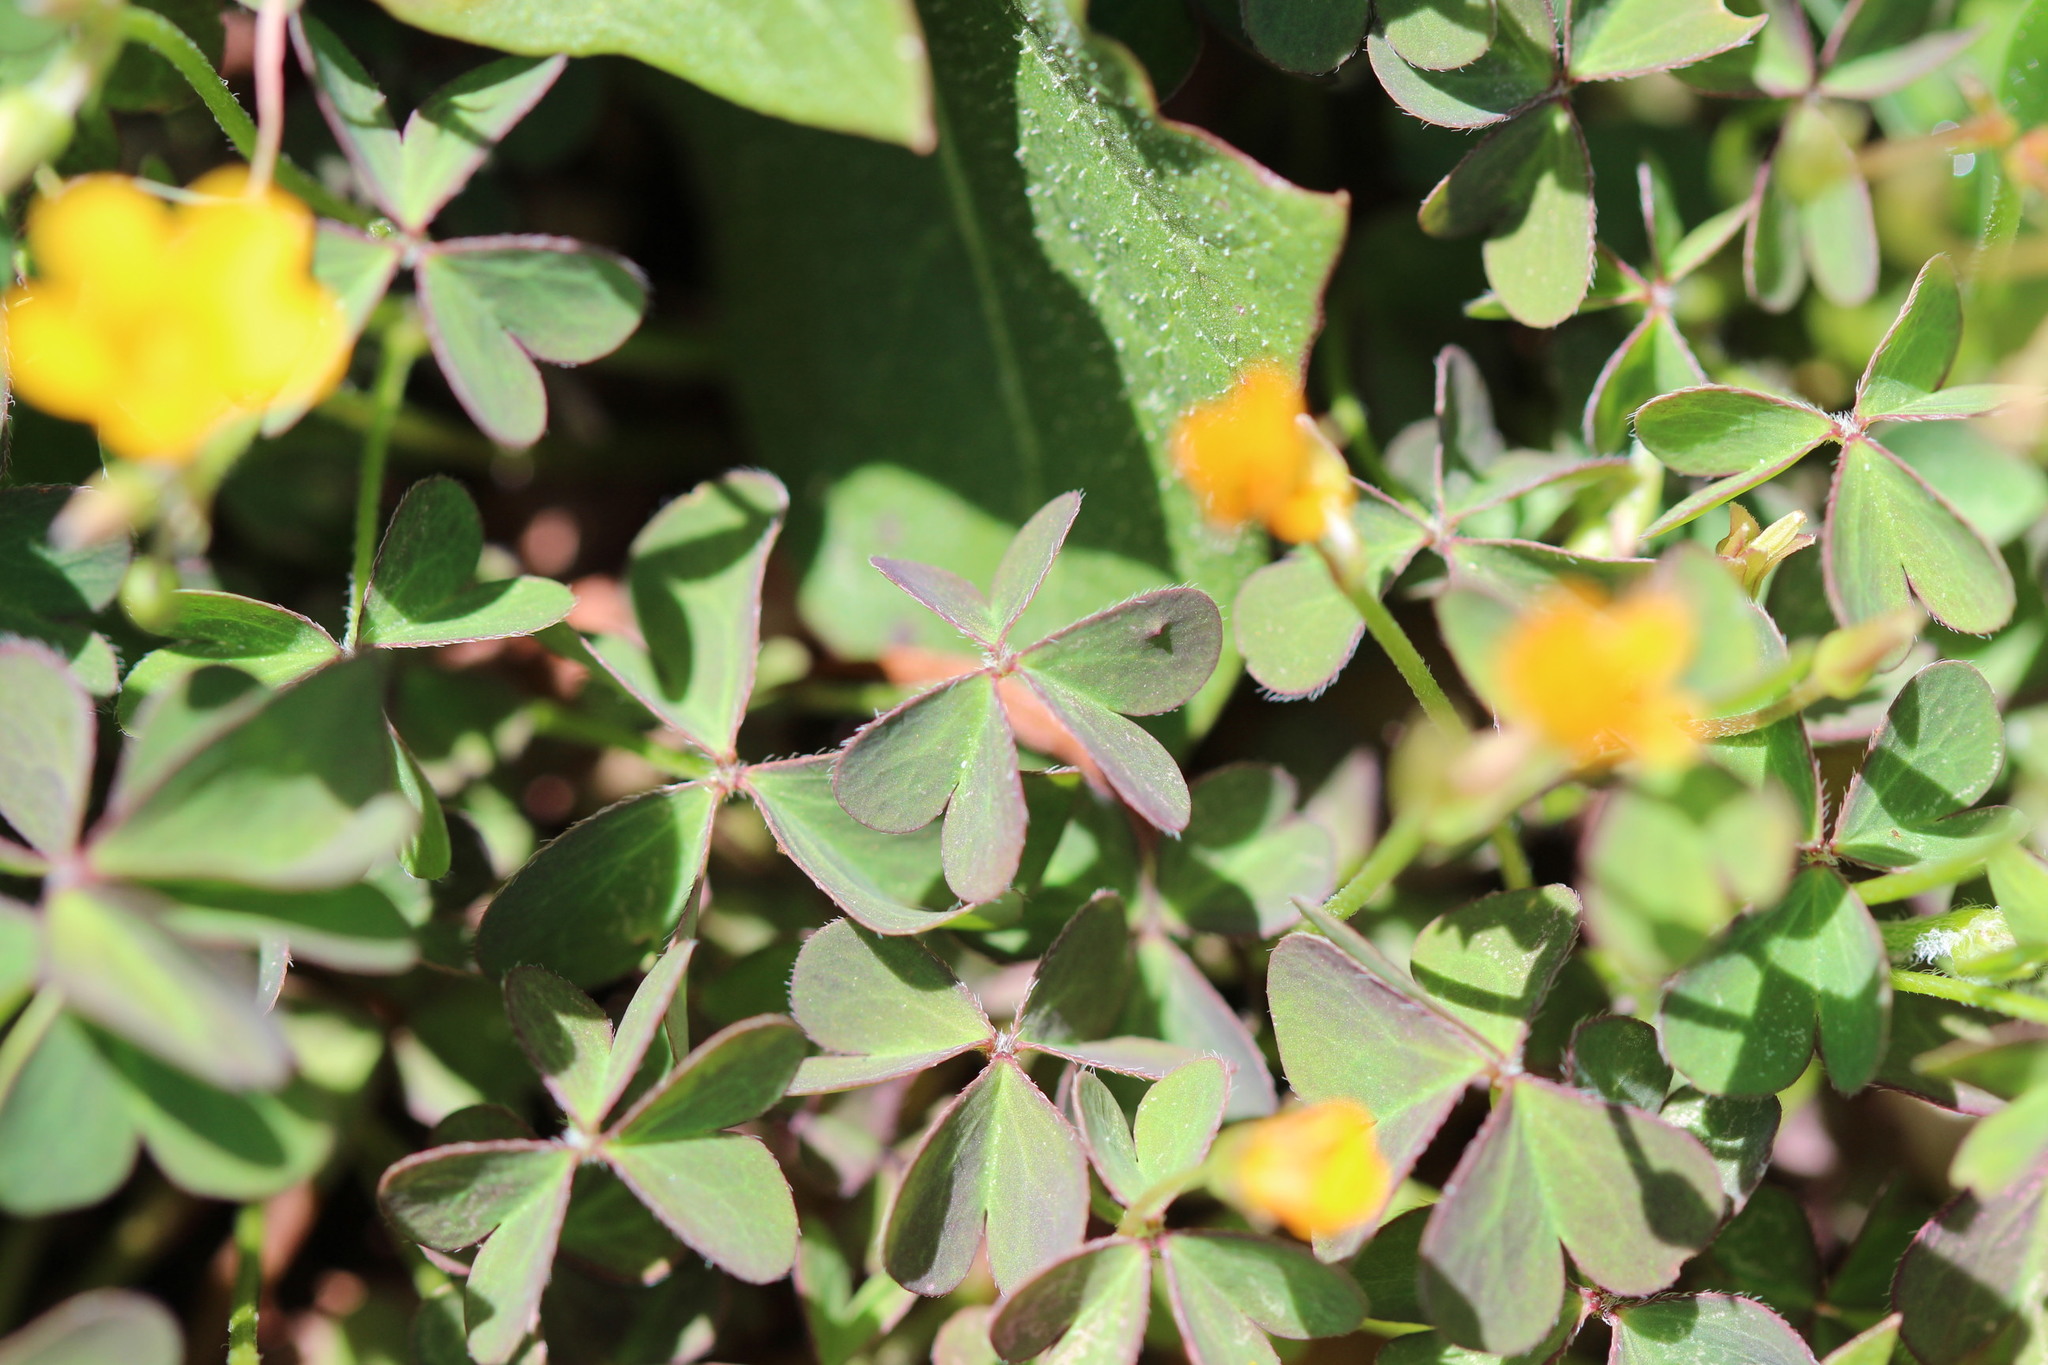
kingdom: Plantae
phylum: Tracheophyta
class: Magnoliopsida
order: Oxalidales
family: Oxalidaceae
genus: Oxalis
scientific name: Oxalis corniculata
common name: Procumbent yellow-sorrel
